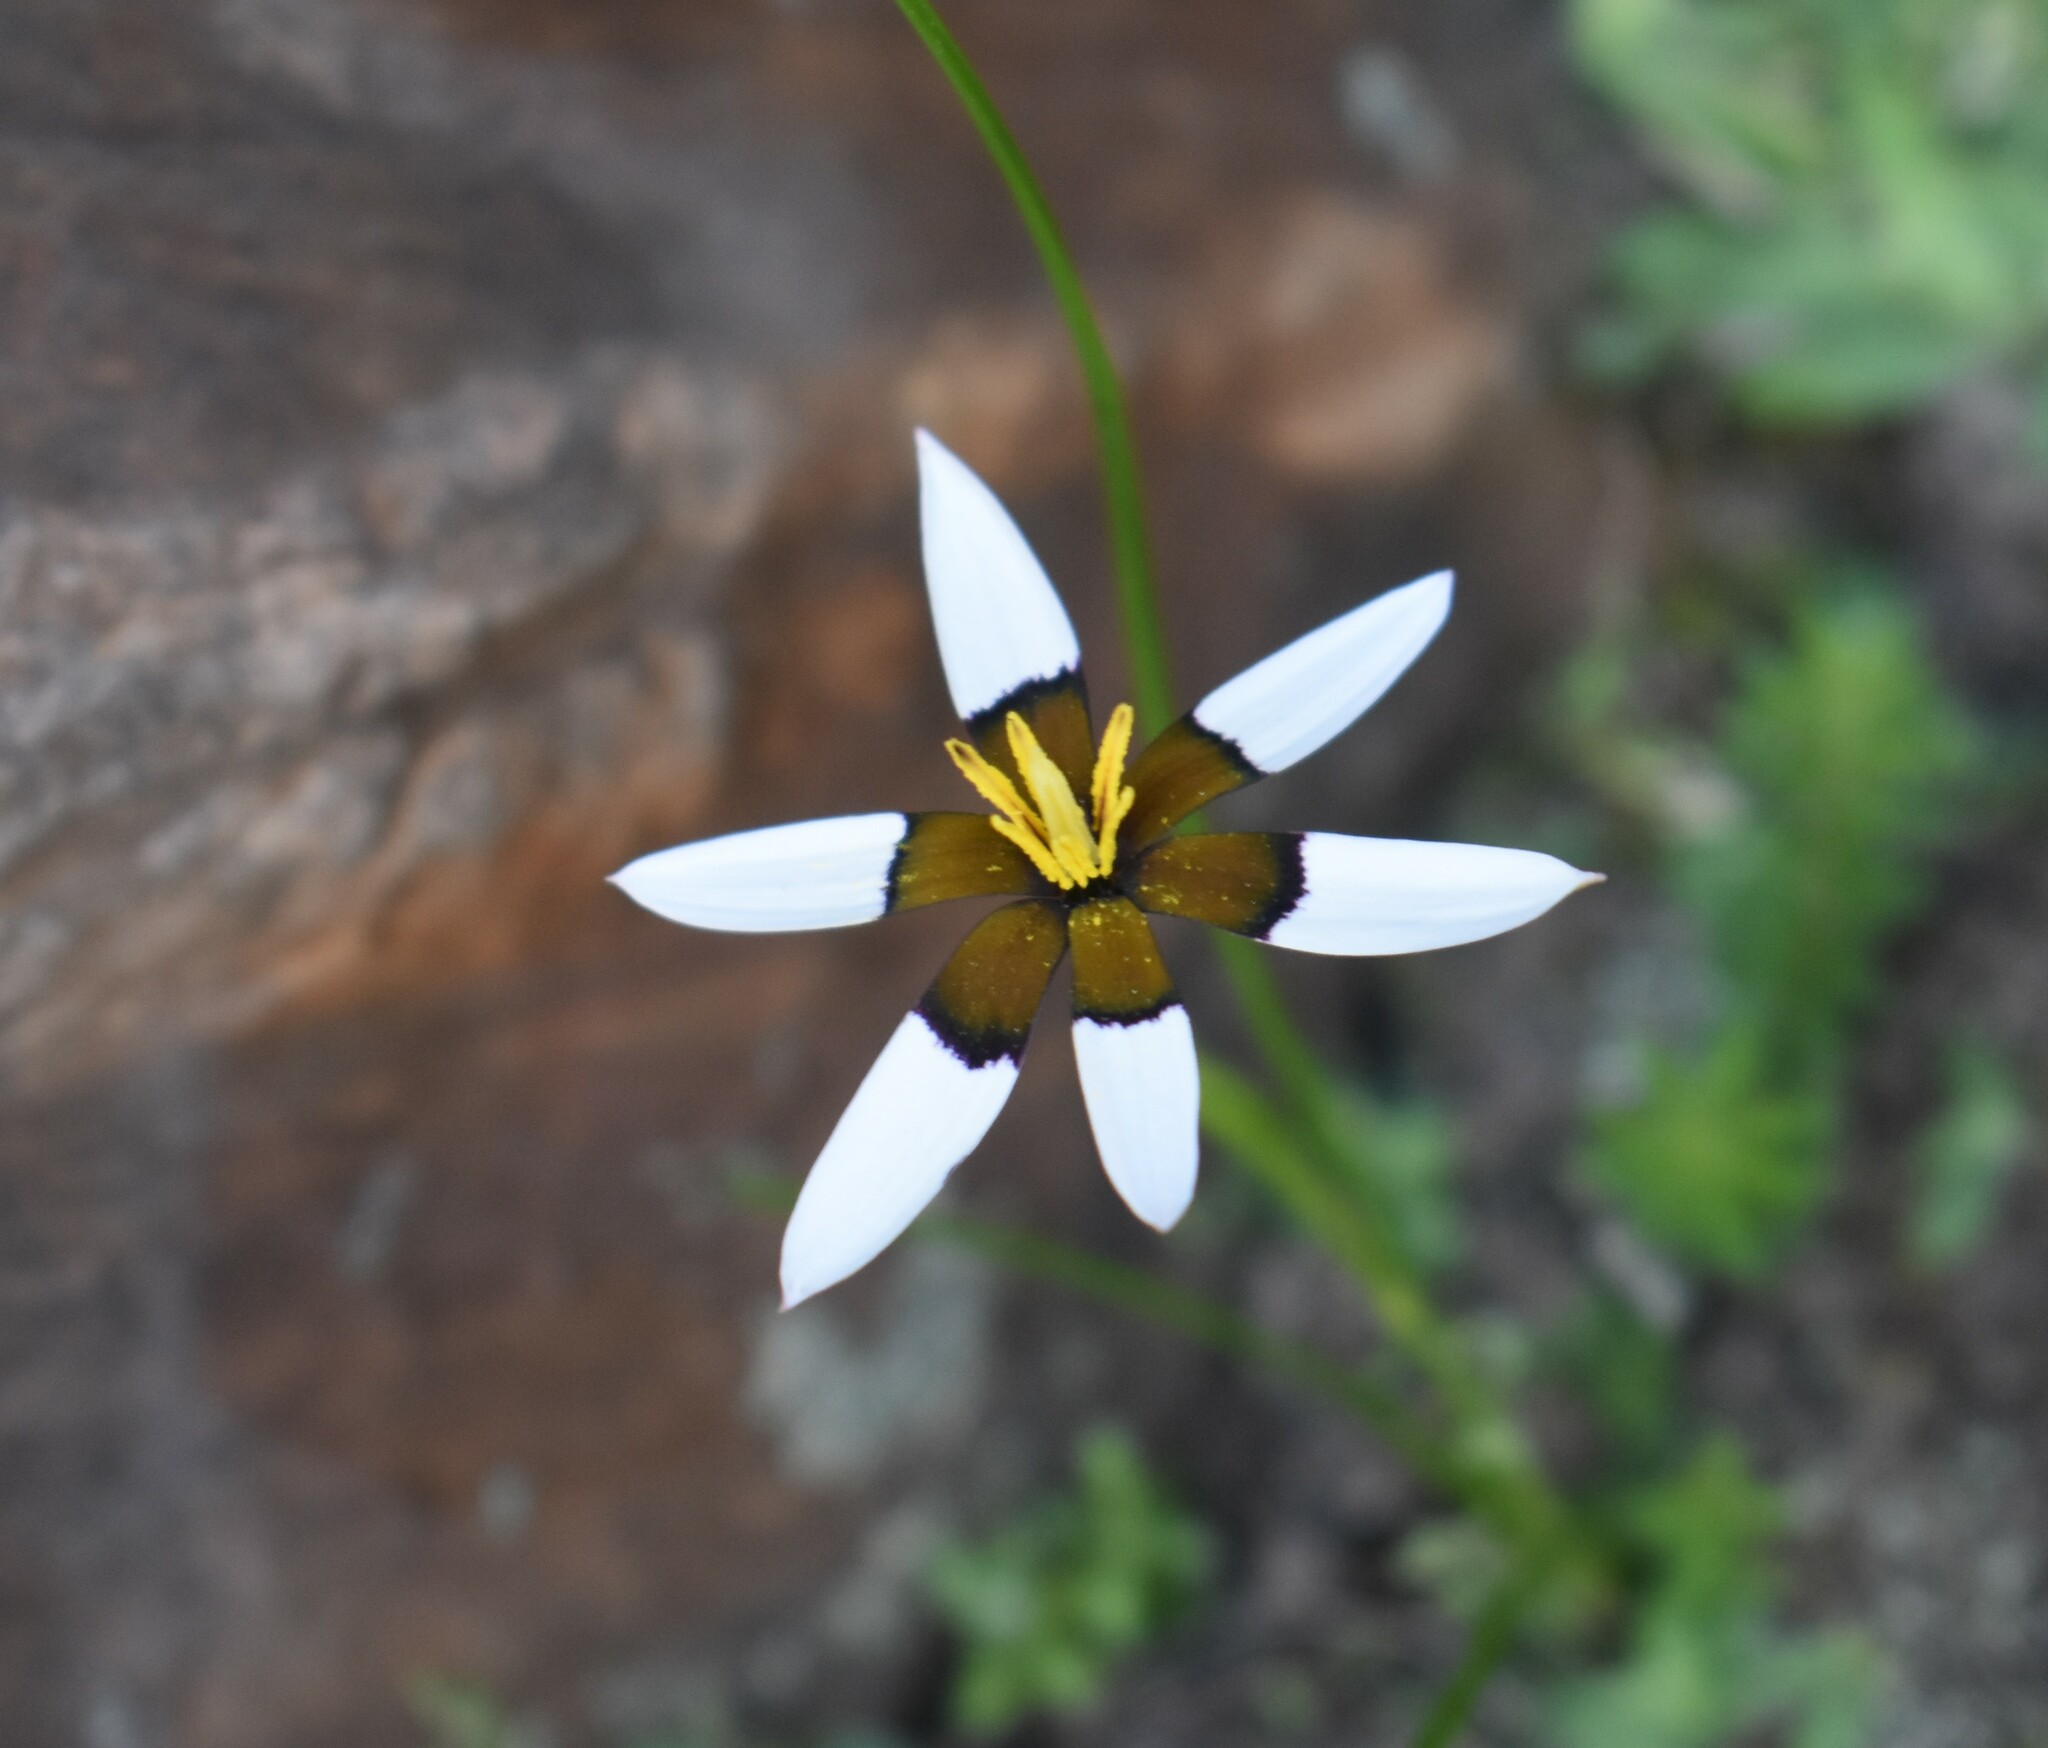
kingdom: Plantae
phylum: Tracheophyta
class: Liliopsida
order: Asparagales
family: Hypoxidaceae
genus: Pauridia
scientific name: Pauridia capensis
